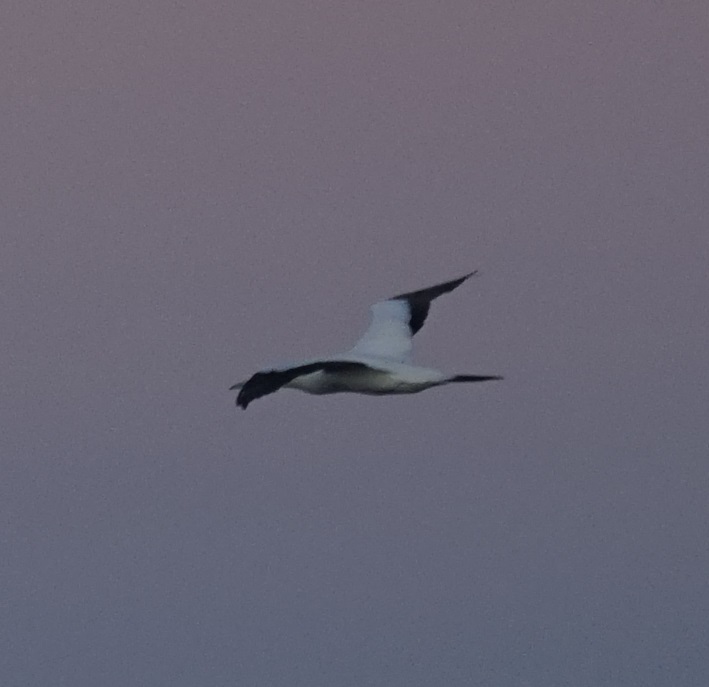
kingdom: Animalia
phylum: Chordata
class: Aves
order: Suliformes
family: Sulidae
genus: Morus
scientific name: Morus serrator
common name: Australasian gannet
